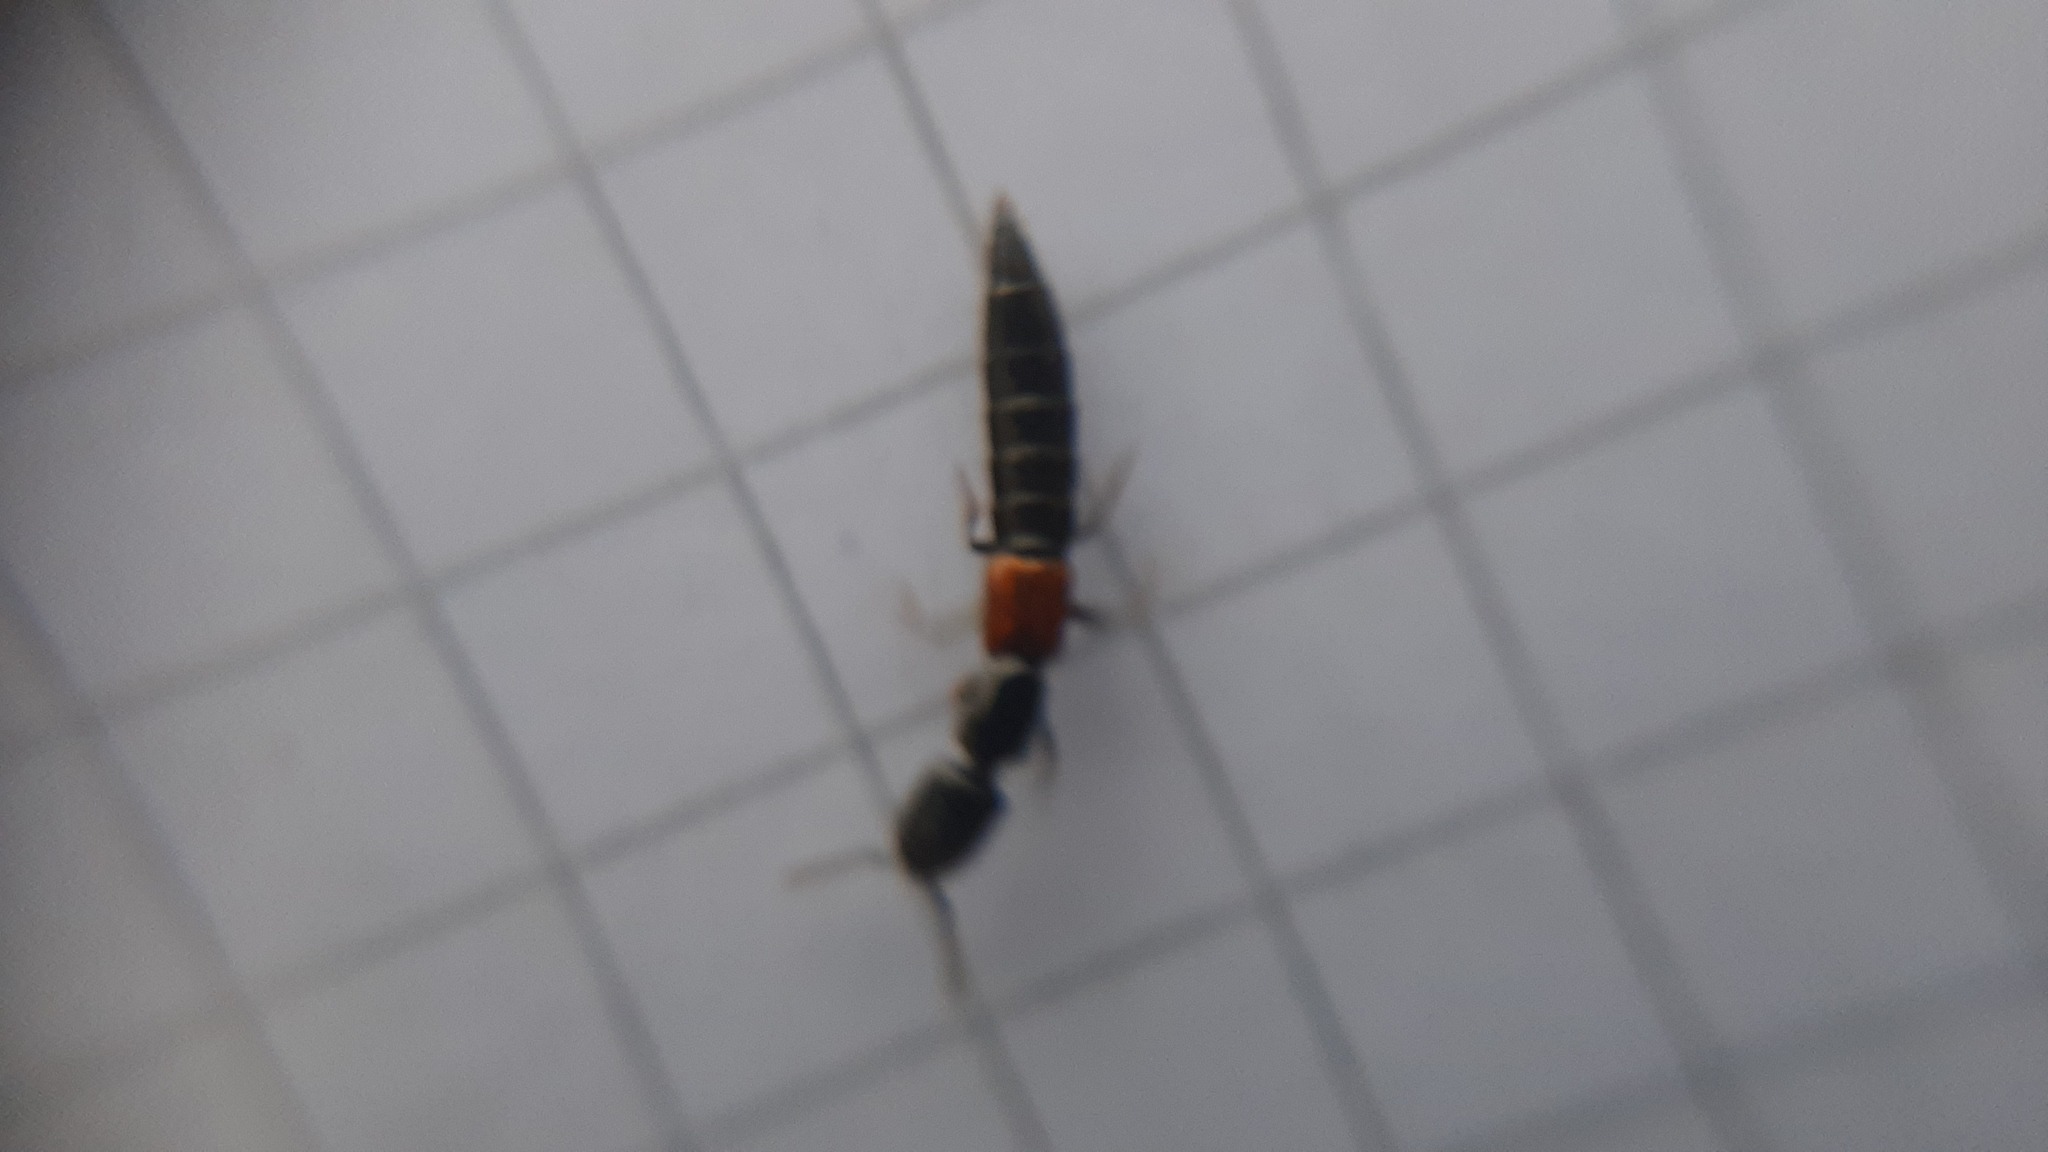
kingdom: Animalia
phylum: Arthropoda
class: Insecta
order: Coleoptera
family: Staphylinidae
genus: Gauropterus
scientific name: Gauropterus fulgidus
